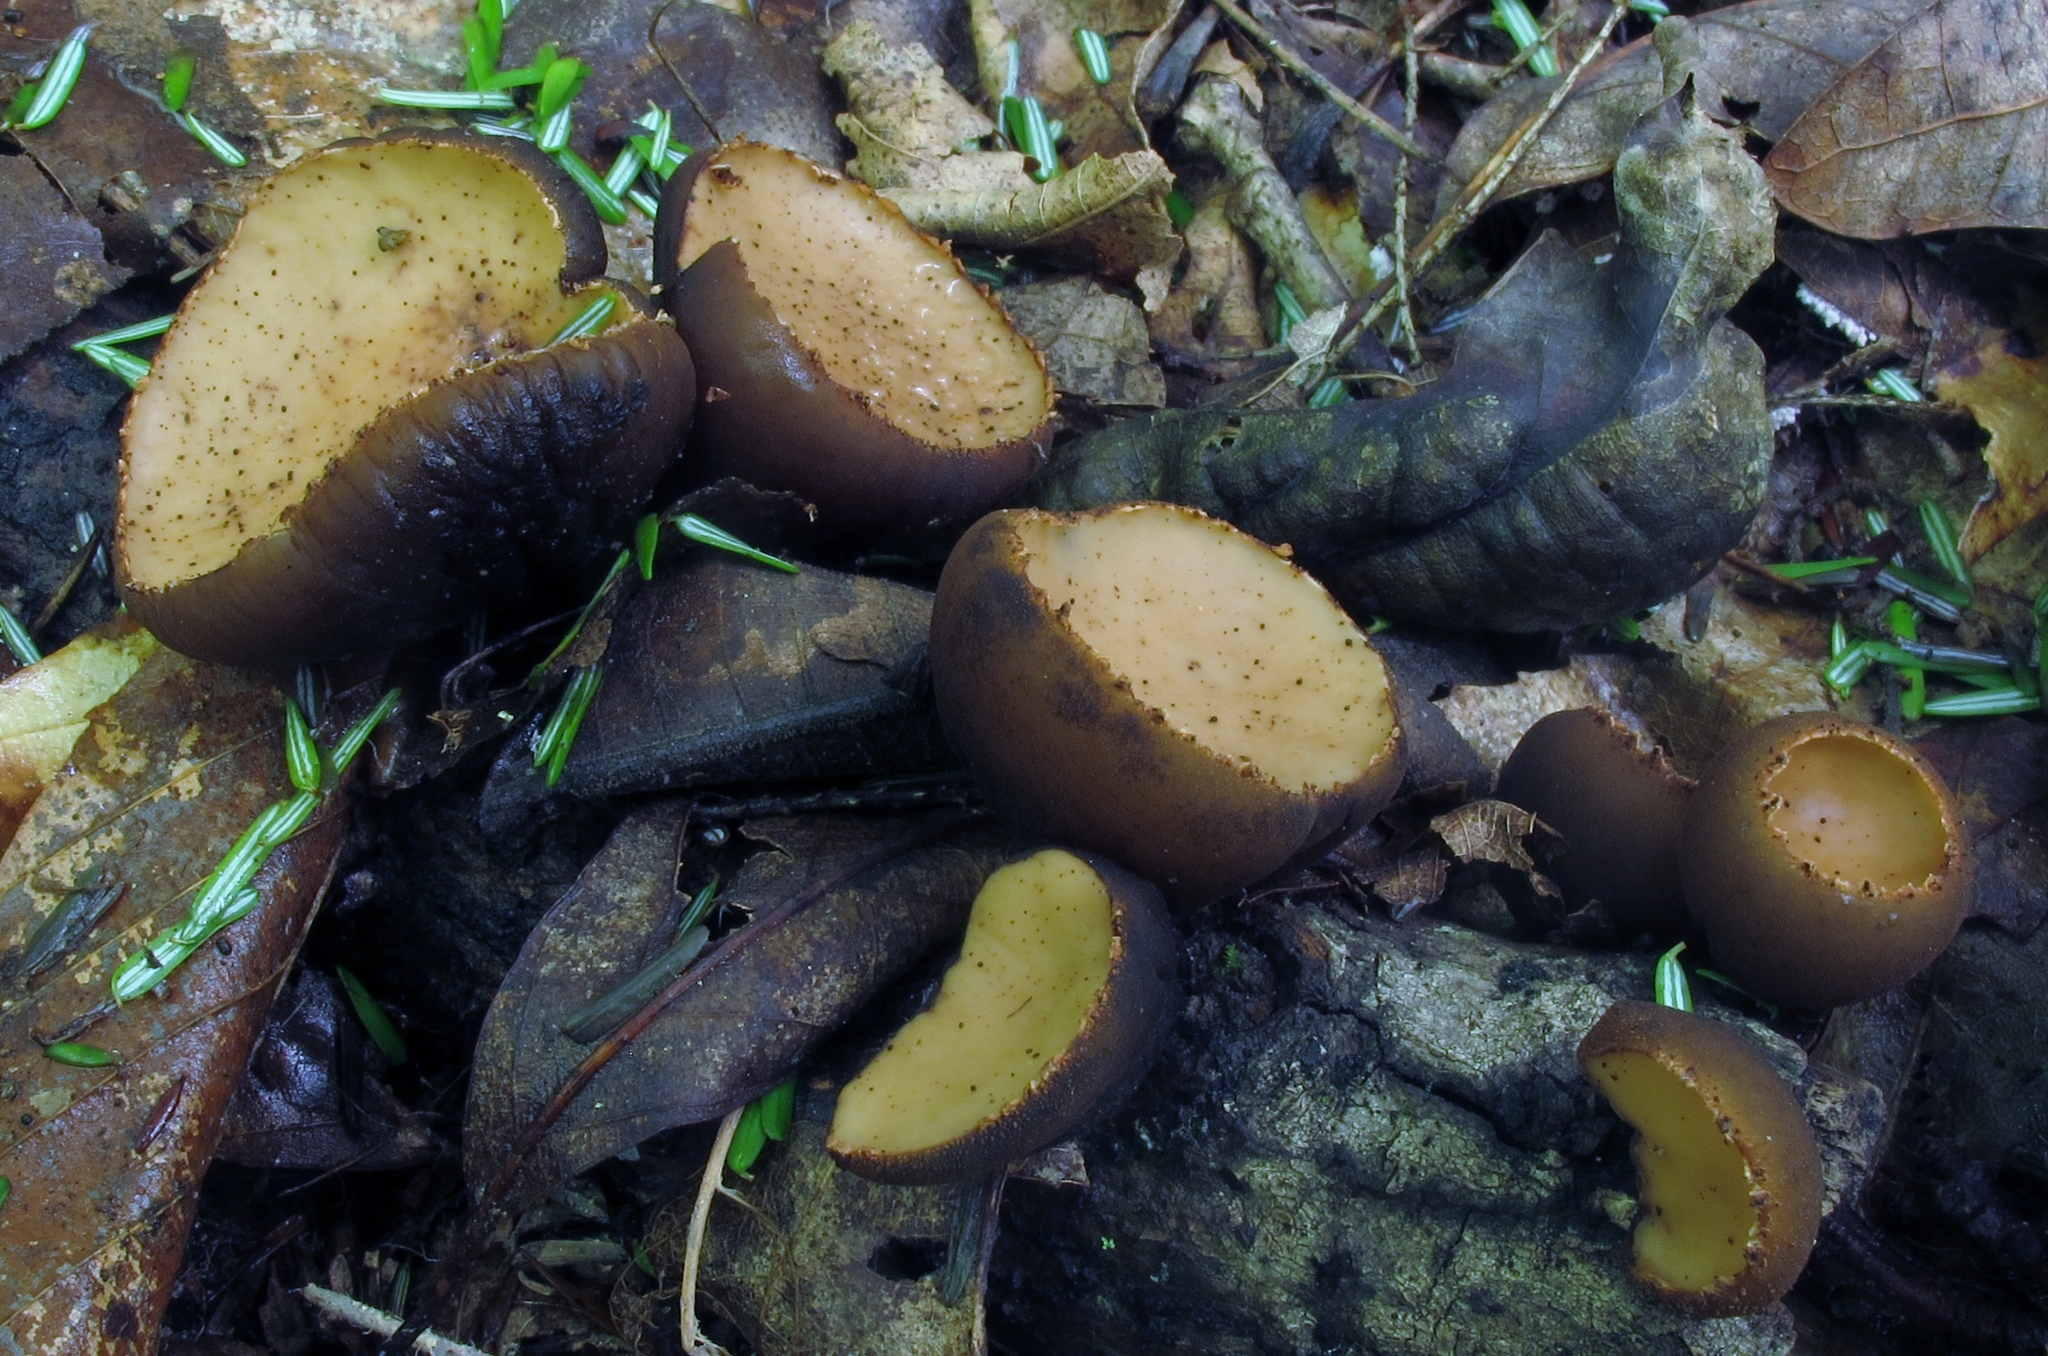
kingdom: Fungi
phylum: Ascomycota
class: Pezizomycetes
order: Pezizales
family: Sarcosomataceae
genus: Galiella
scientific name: Galiella rufa
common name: Hairy rubber cup
